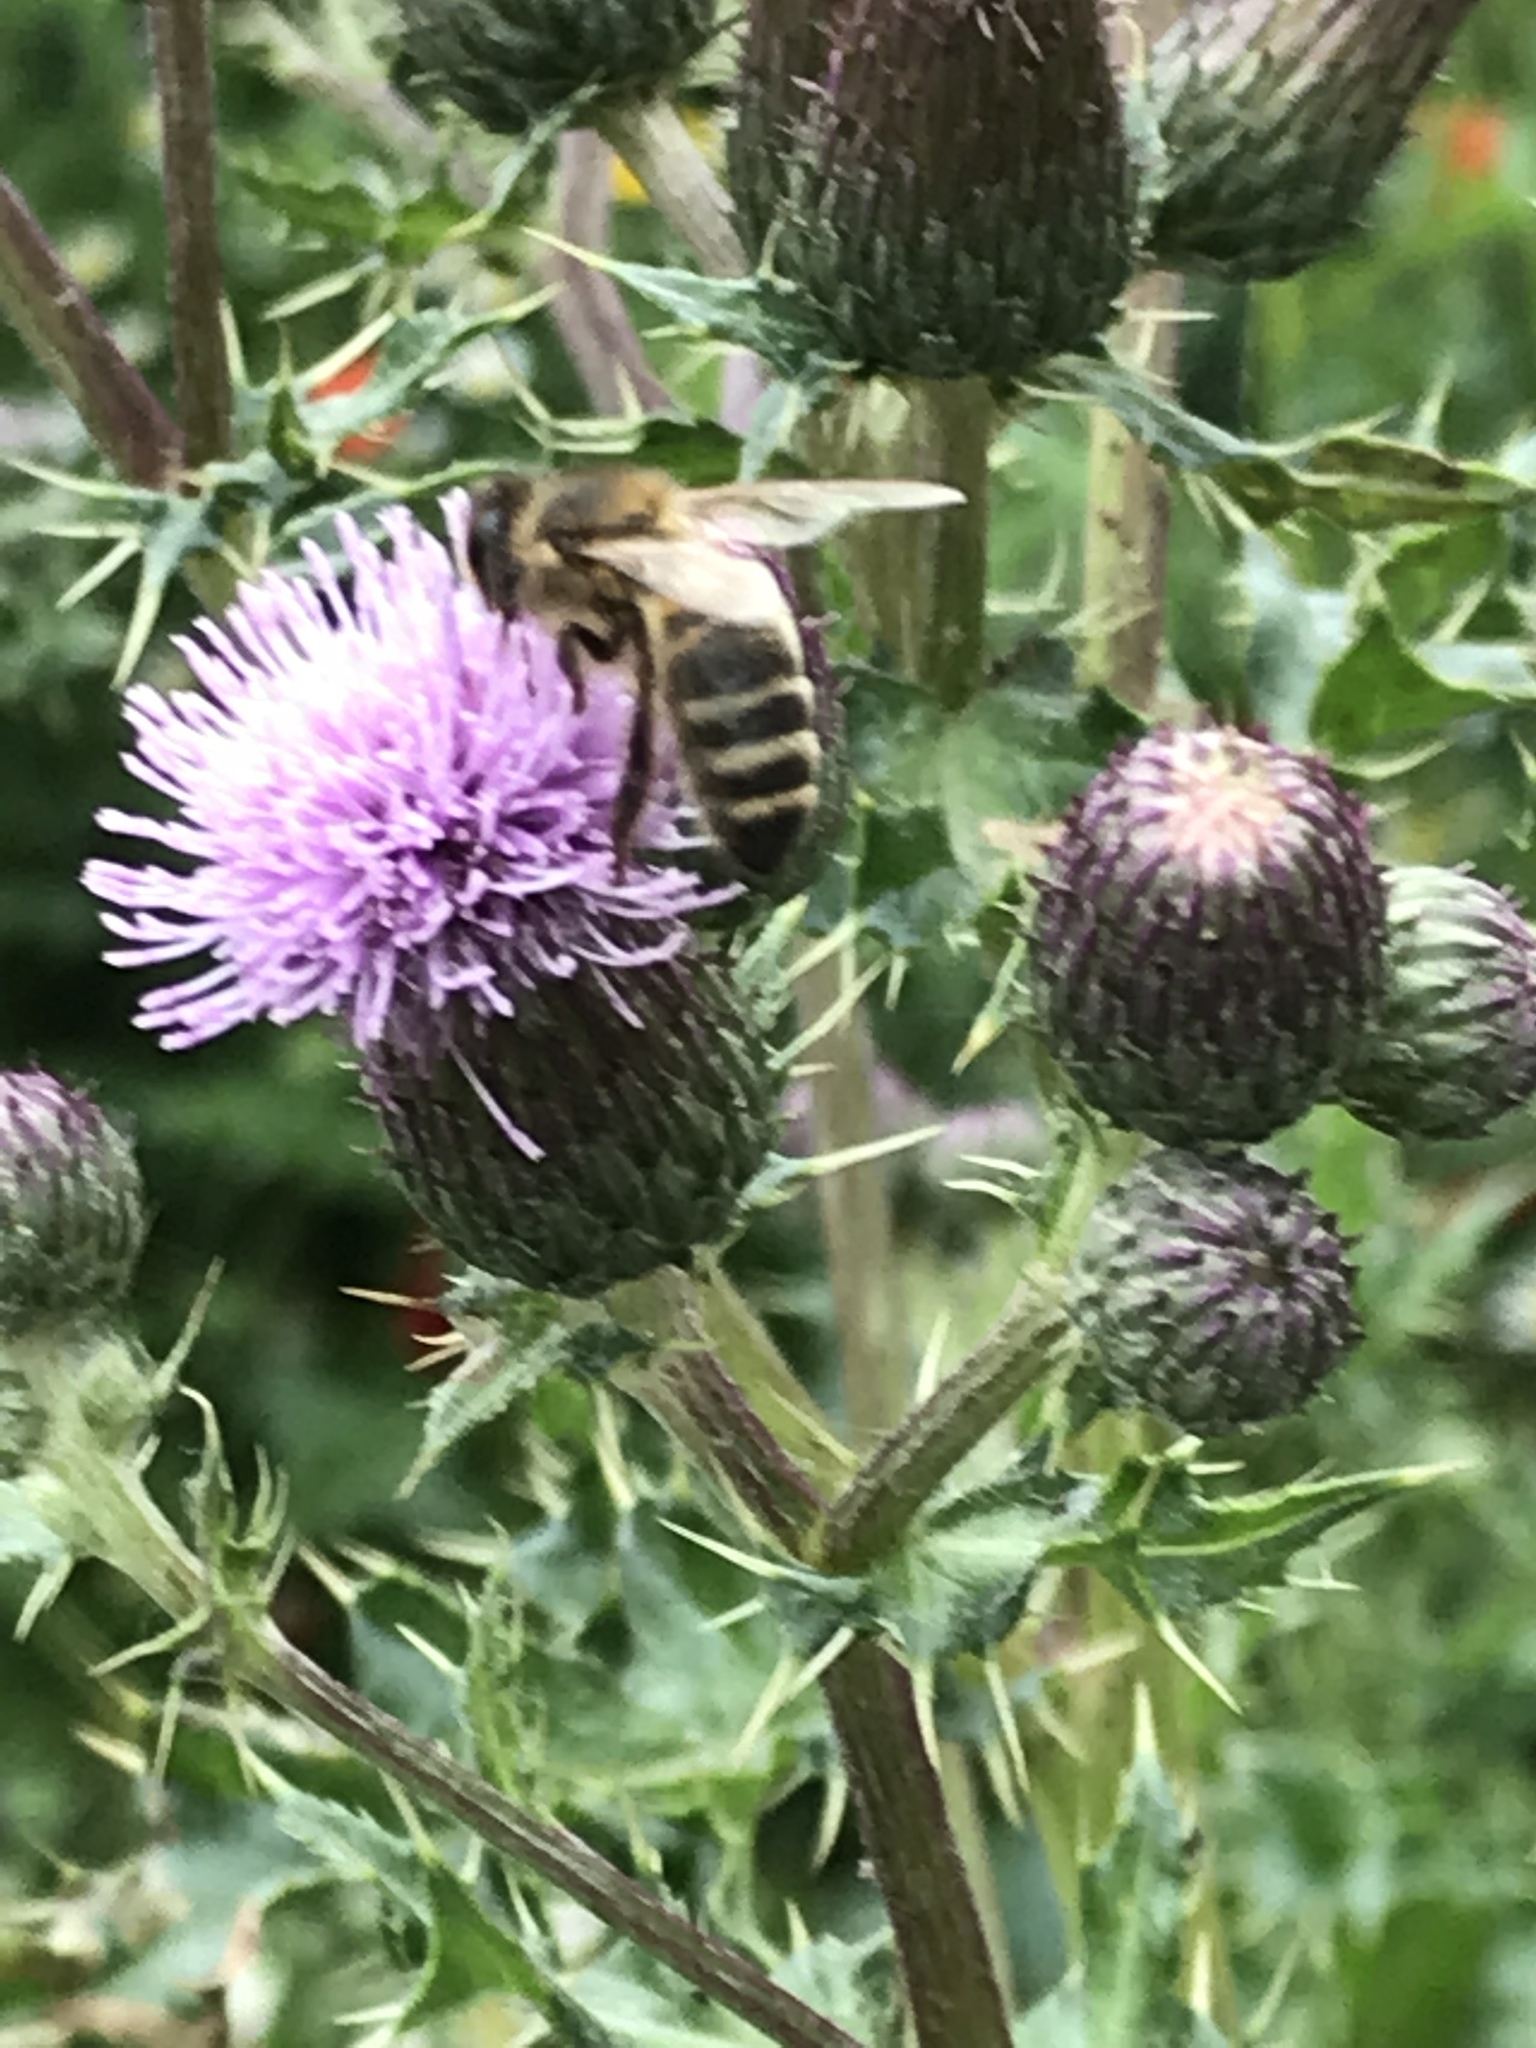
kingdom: Animalia
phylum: Arthropoda
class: Insecta
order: Hymenoptera
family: Apidae
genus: Apis
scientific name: Apis mellifera
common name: Honey bee
